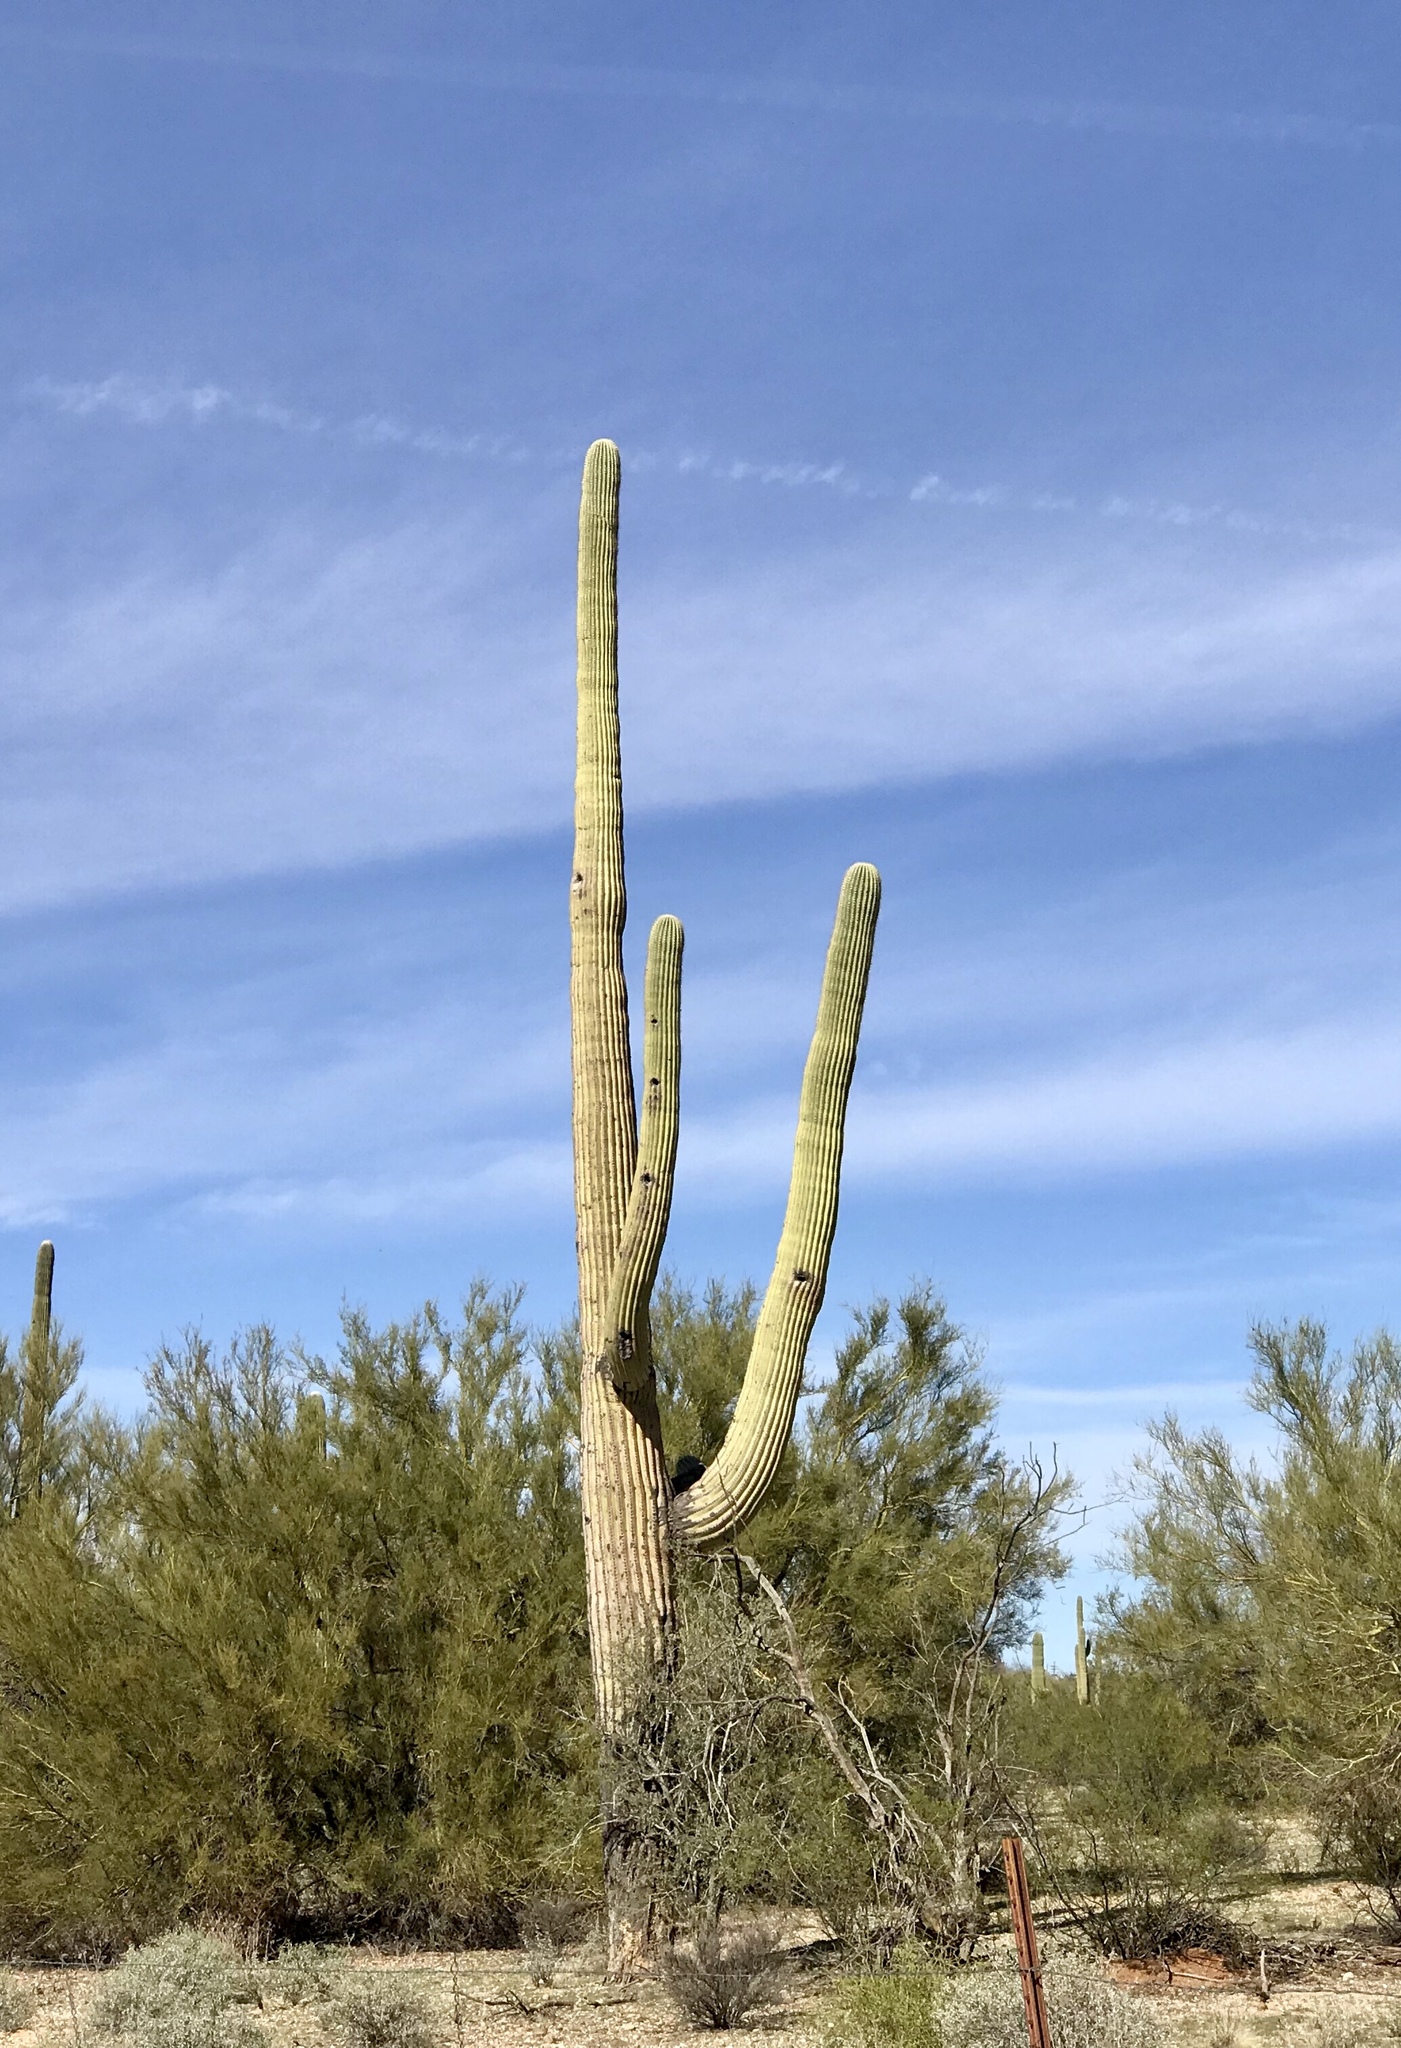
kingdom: Plantae
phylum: Tracheophyta
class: Magnoliopsida
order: Caryophyllales
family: Cactaceae
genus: Carnegiea
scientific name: Carnegiea gigantea
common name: Saguaro
